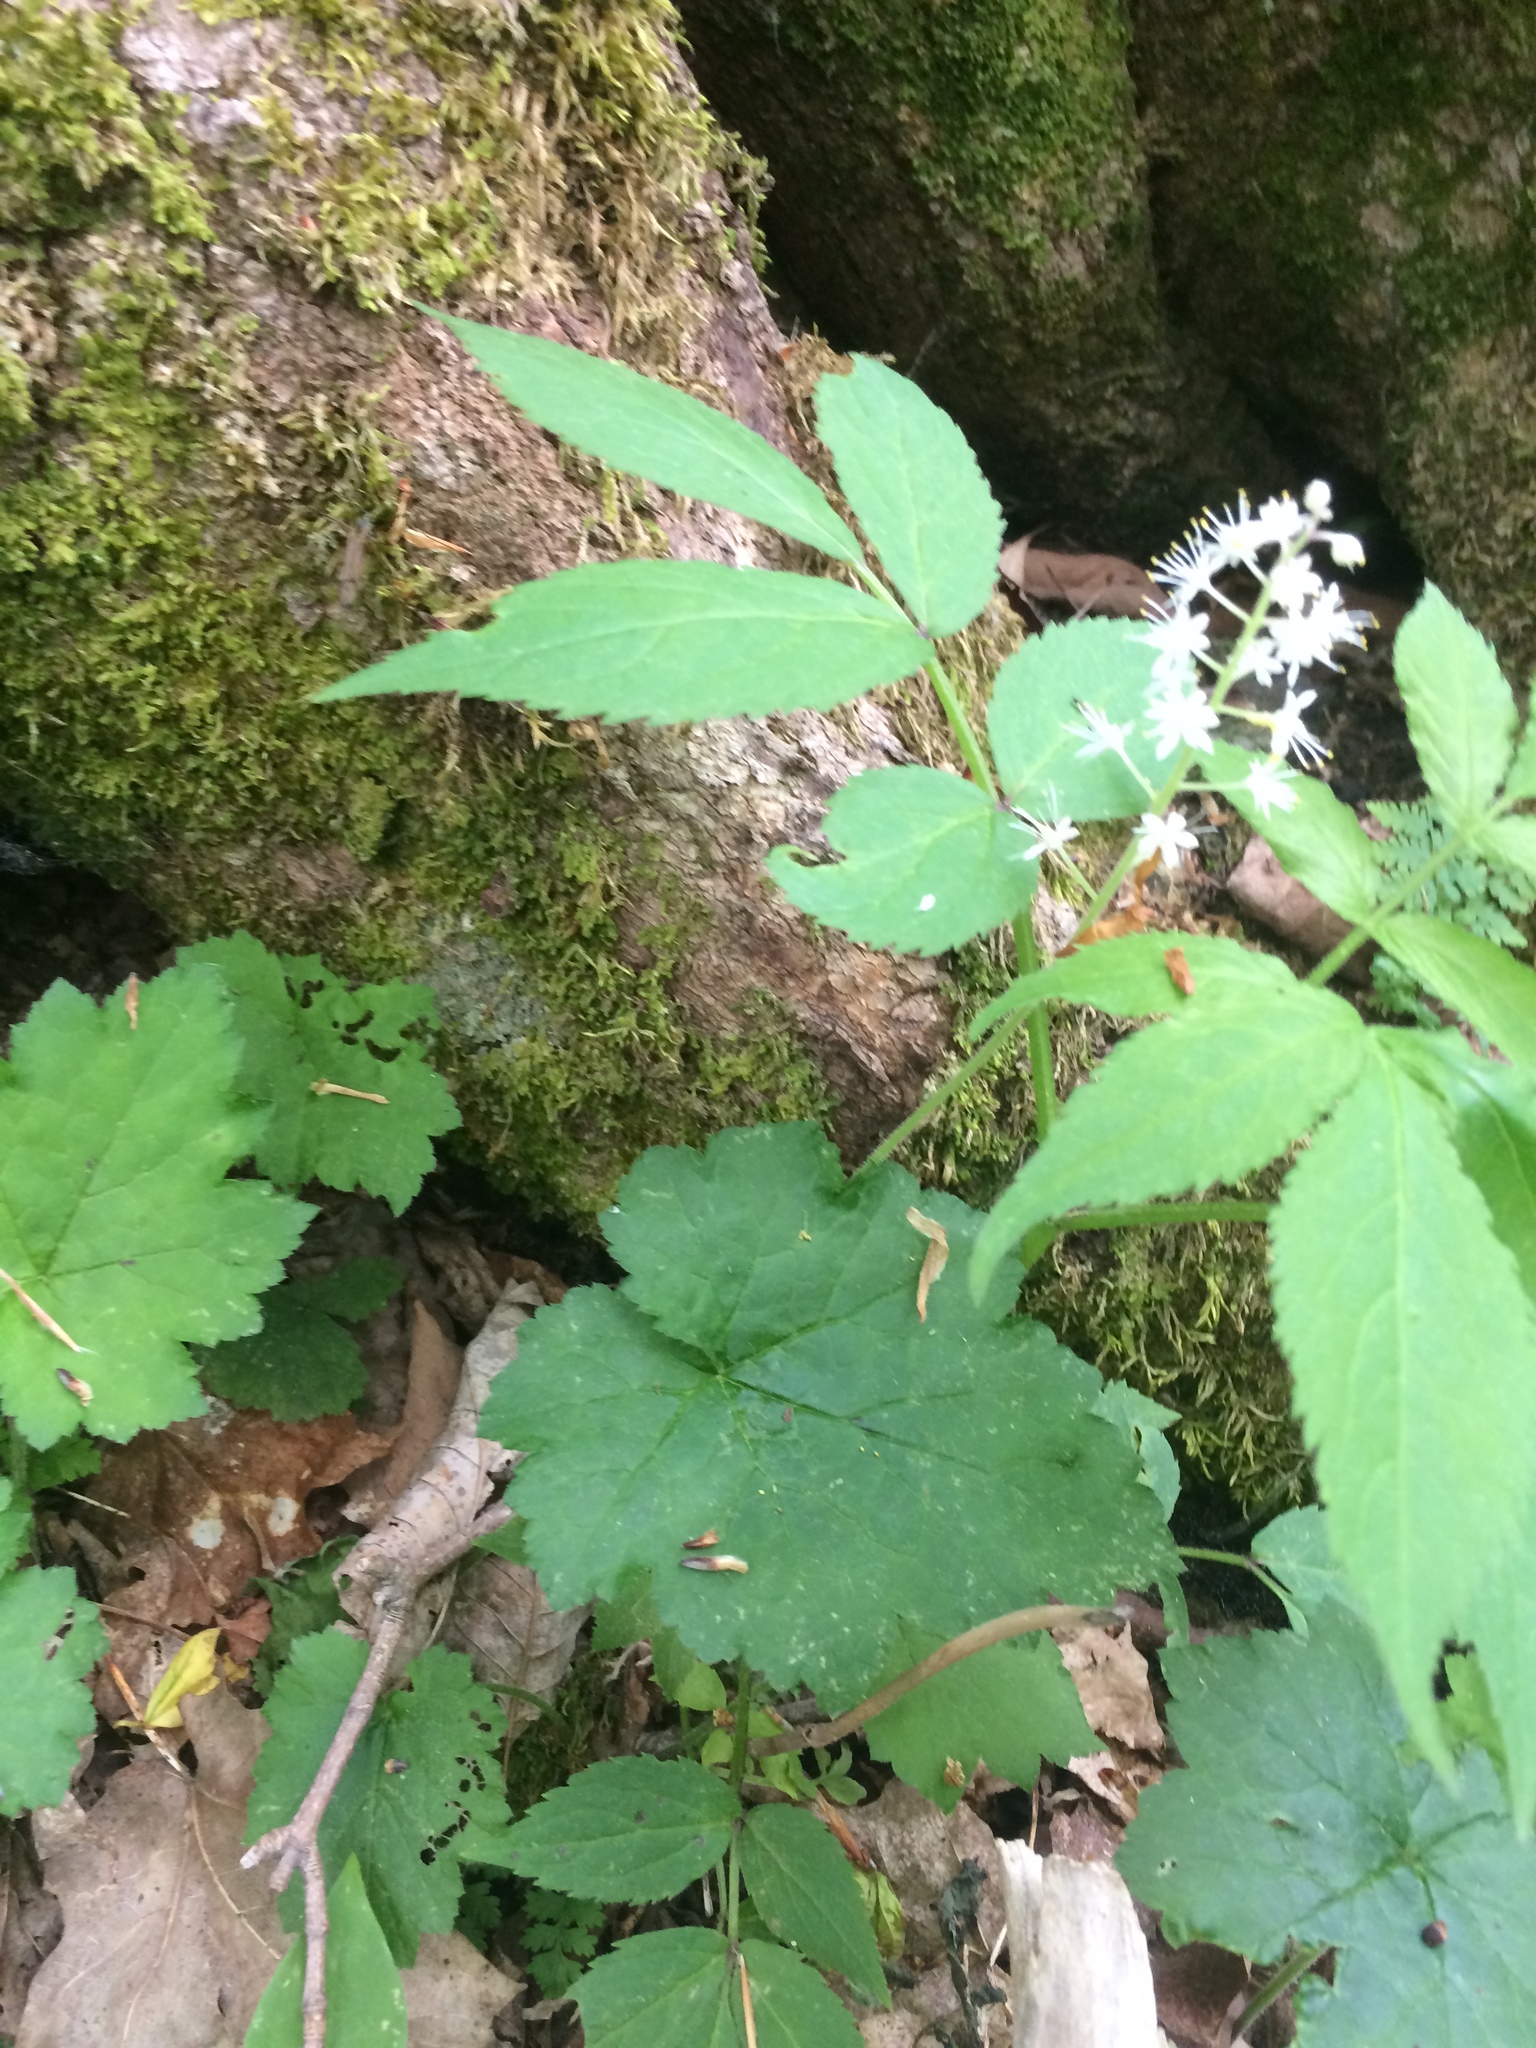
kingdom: Plantae
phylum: Tracheophyta
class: Magnoliopsida
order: Saxifragales
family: Saxifragaceae
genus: Tiarella
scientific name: Tiarella stolonifera
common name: Stoloniferous foamflower
